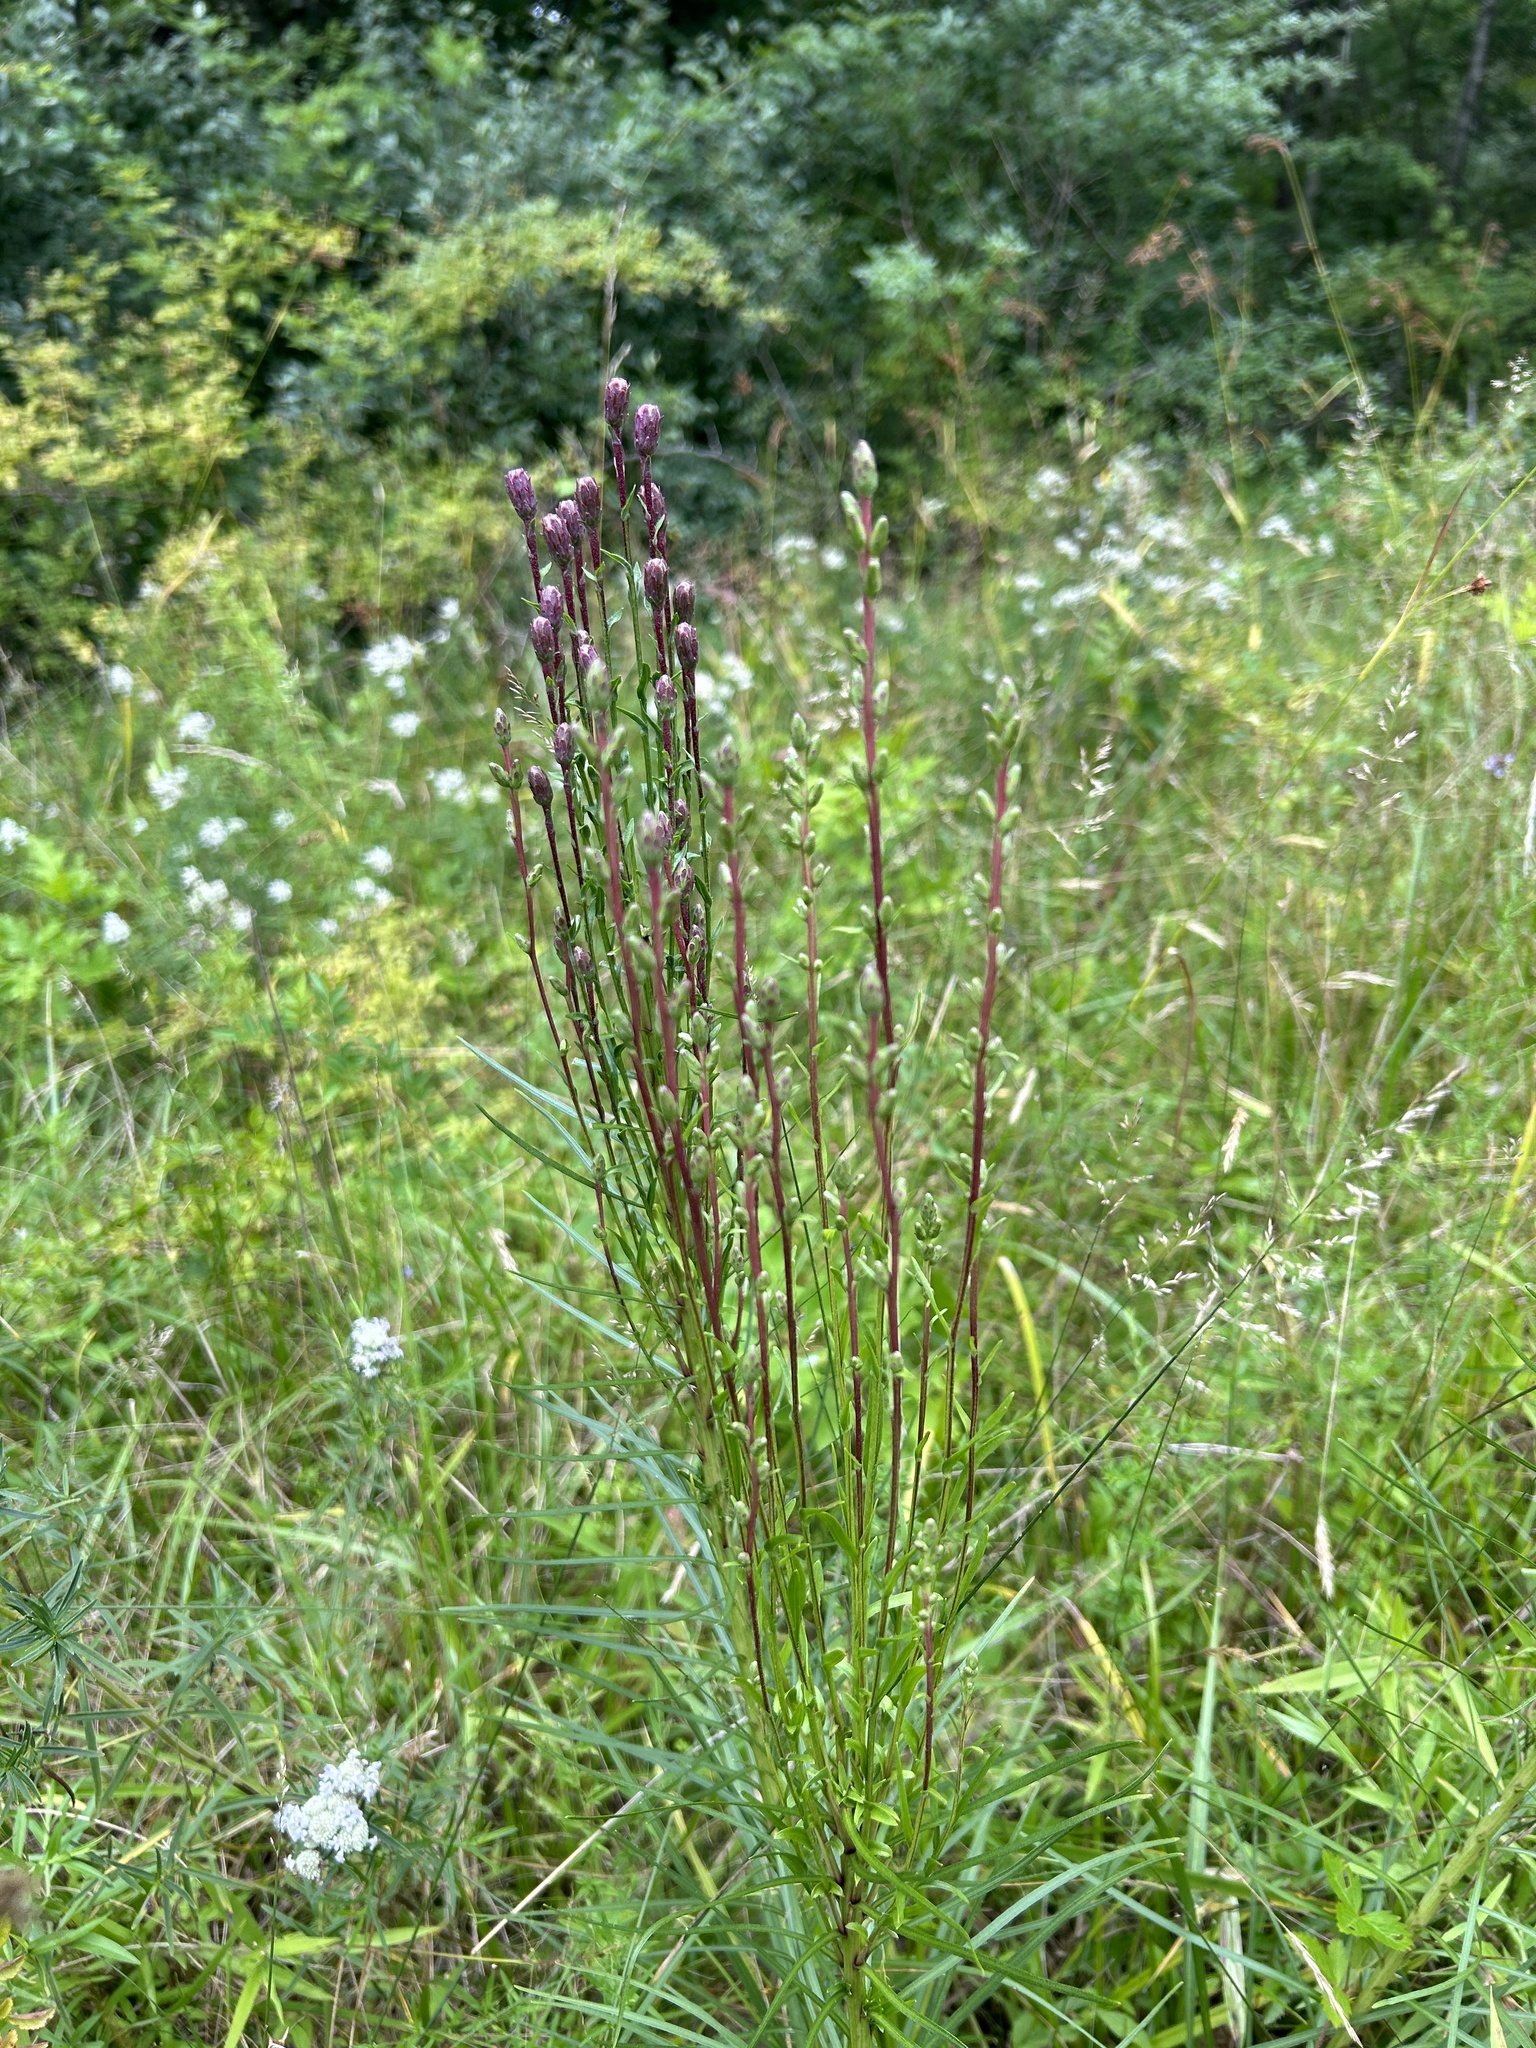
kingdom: Plantae
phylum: Tracheophyta
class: Magnoliopsida
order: Asterales
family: Asteraceae
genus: Liatris
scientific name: Liatris spicata
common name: Florist gayfeather
